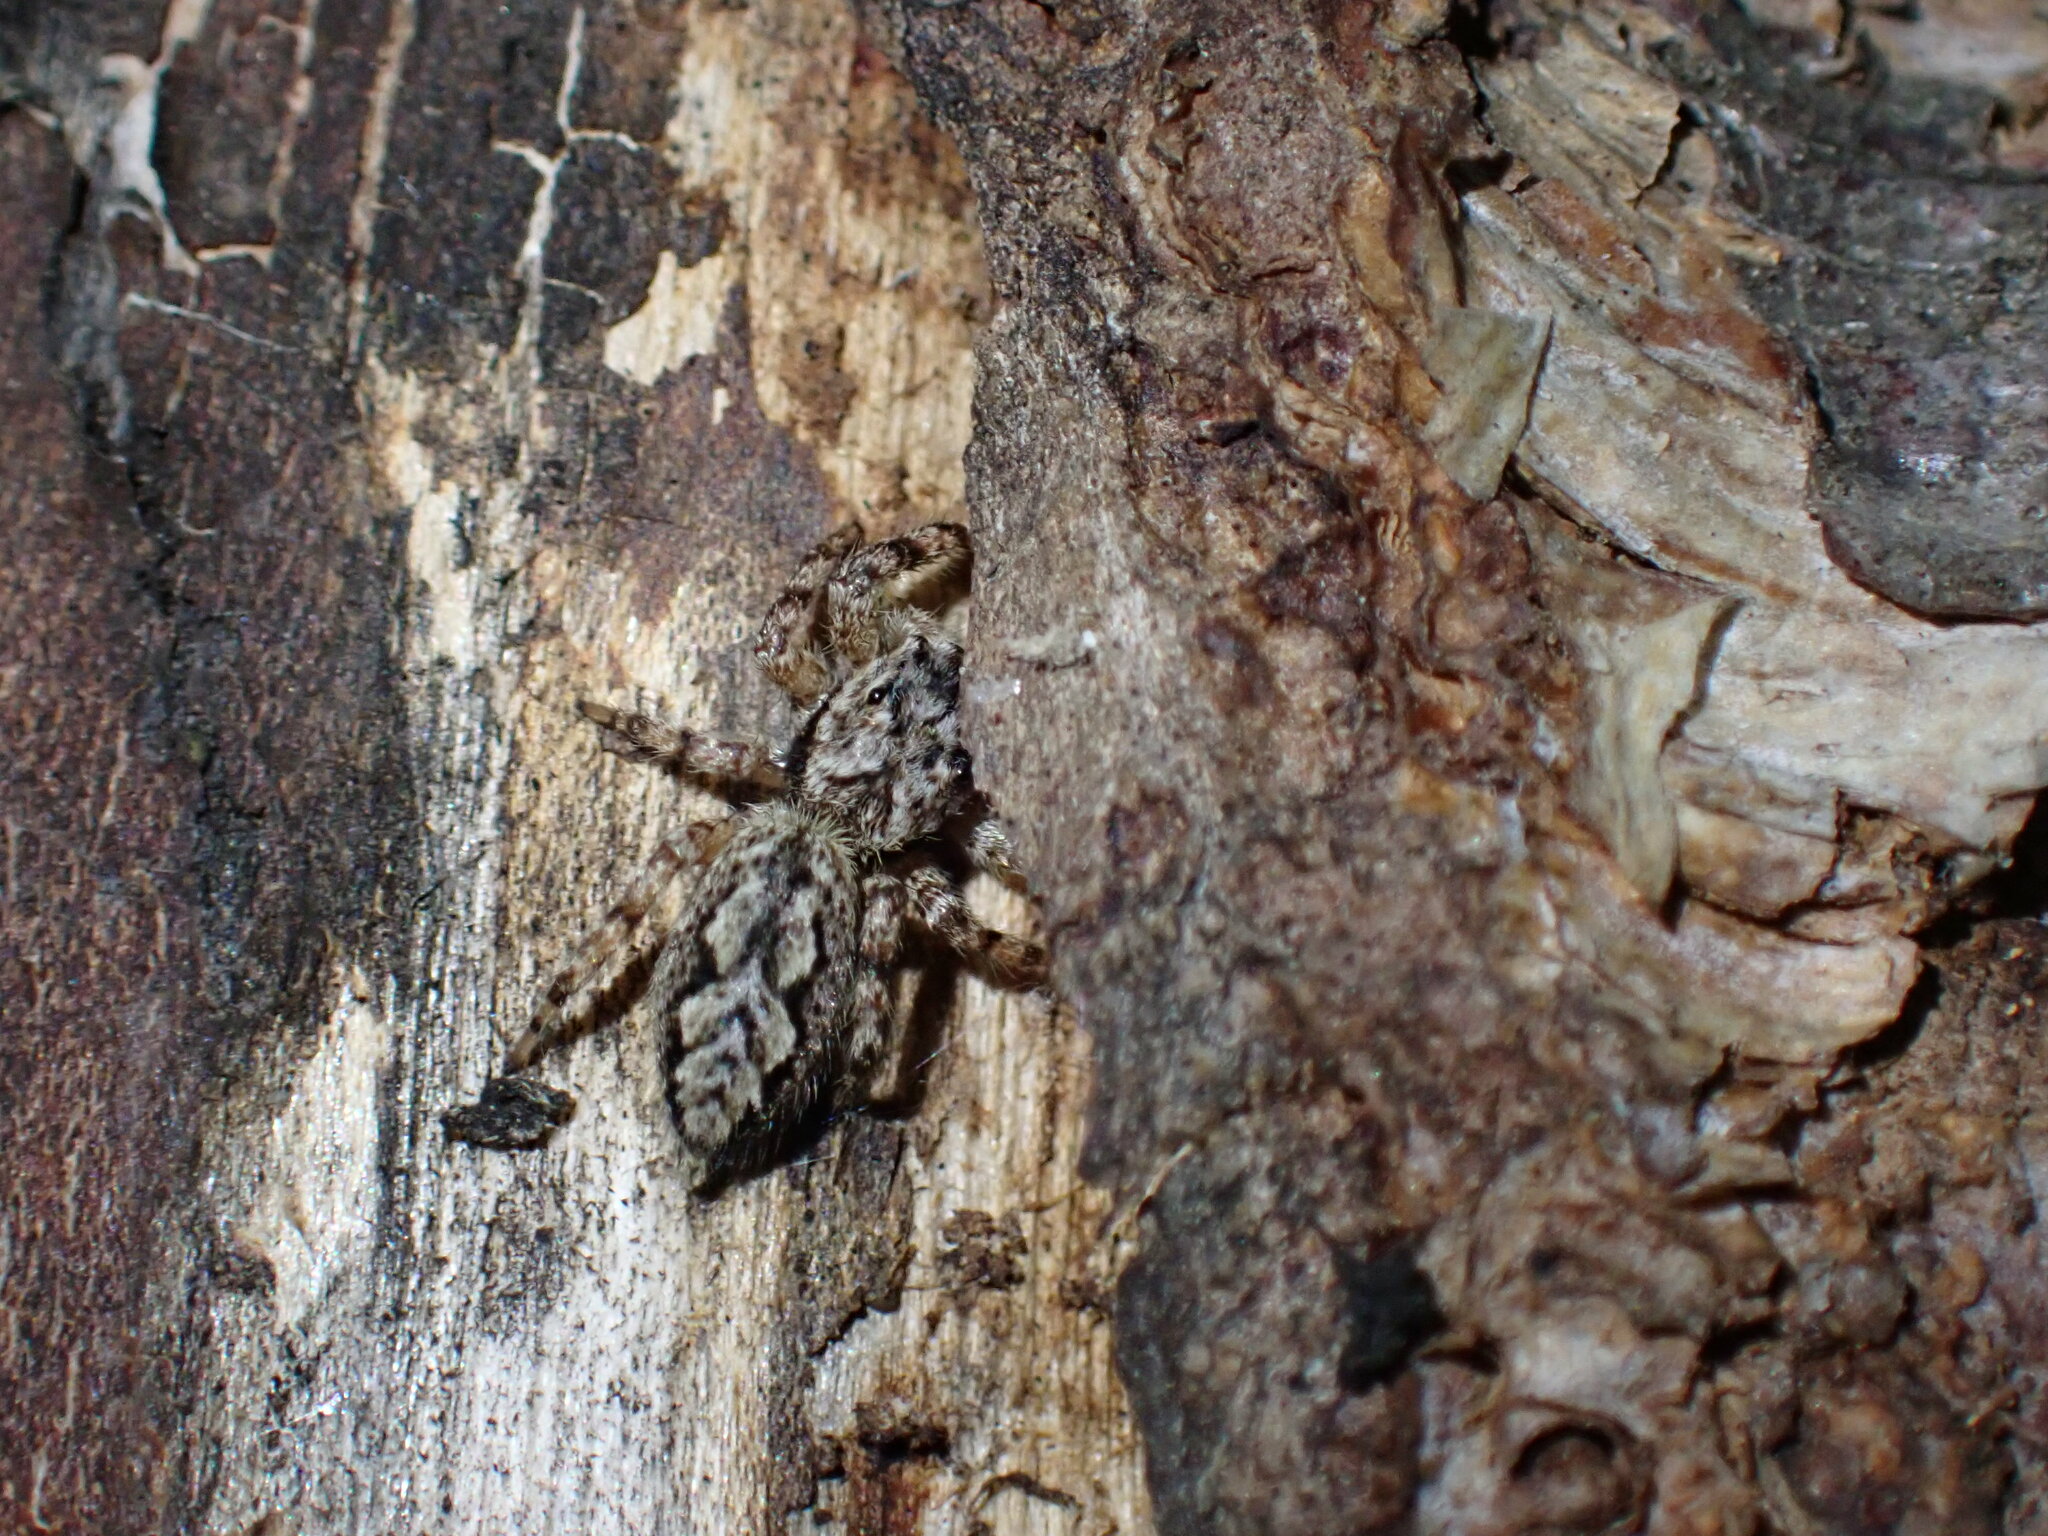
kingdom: Animalia
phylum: Arthropoda
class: Arachnida
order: Araneae
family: Salticidae
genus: Platycryptus
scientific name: Platycryptus undatus
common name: Tan jumping spider
